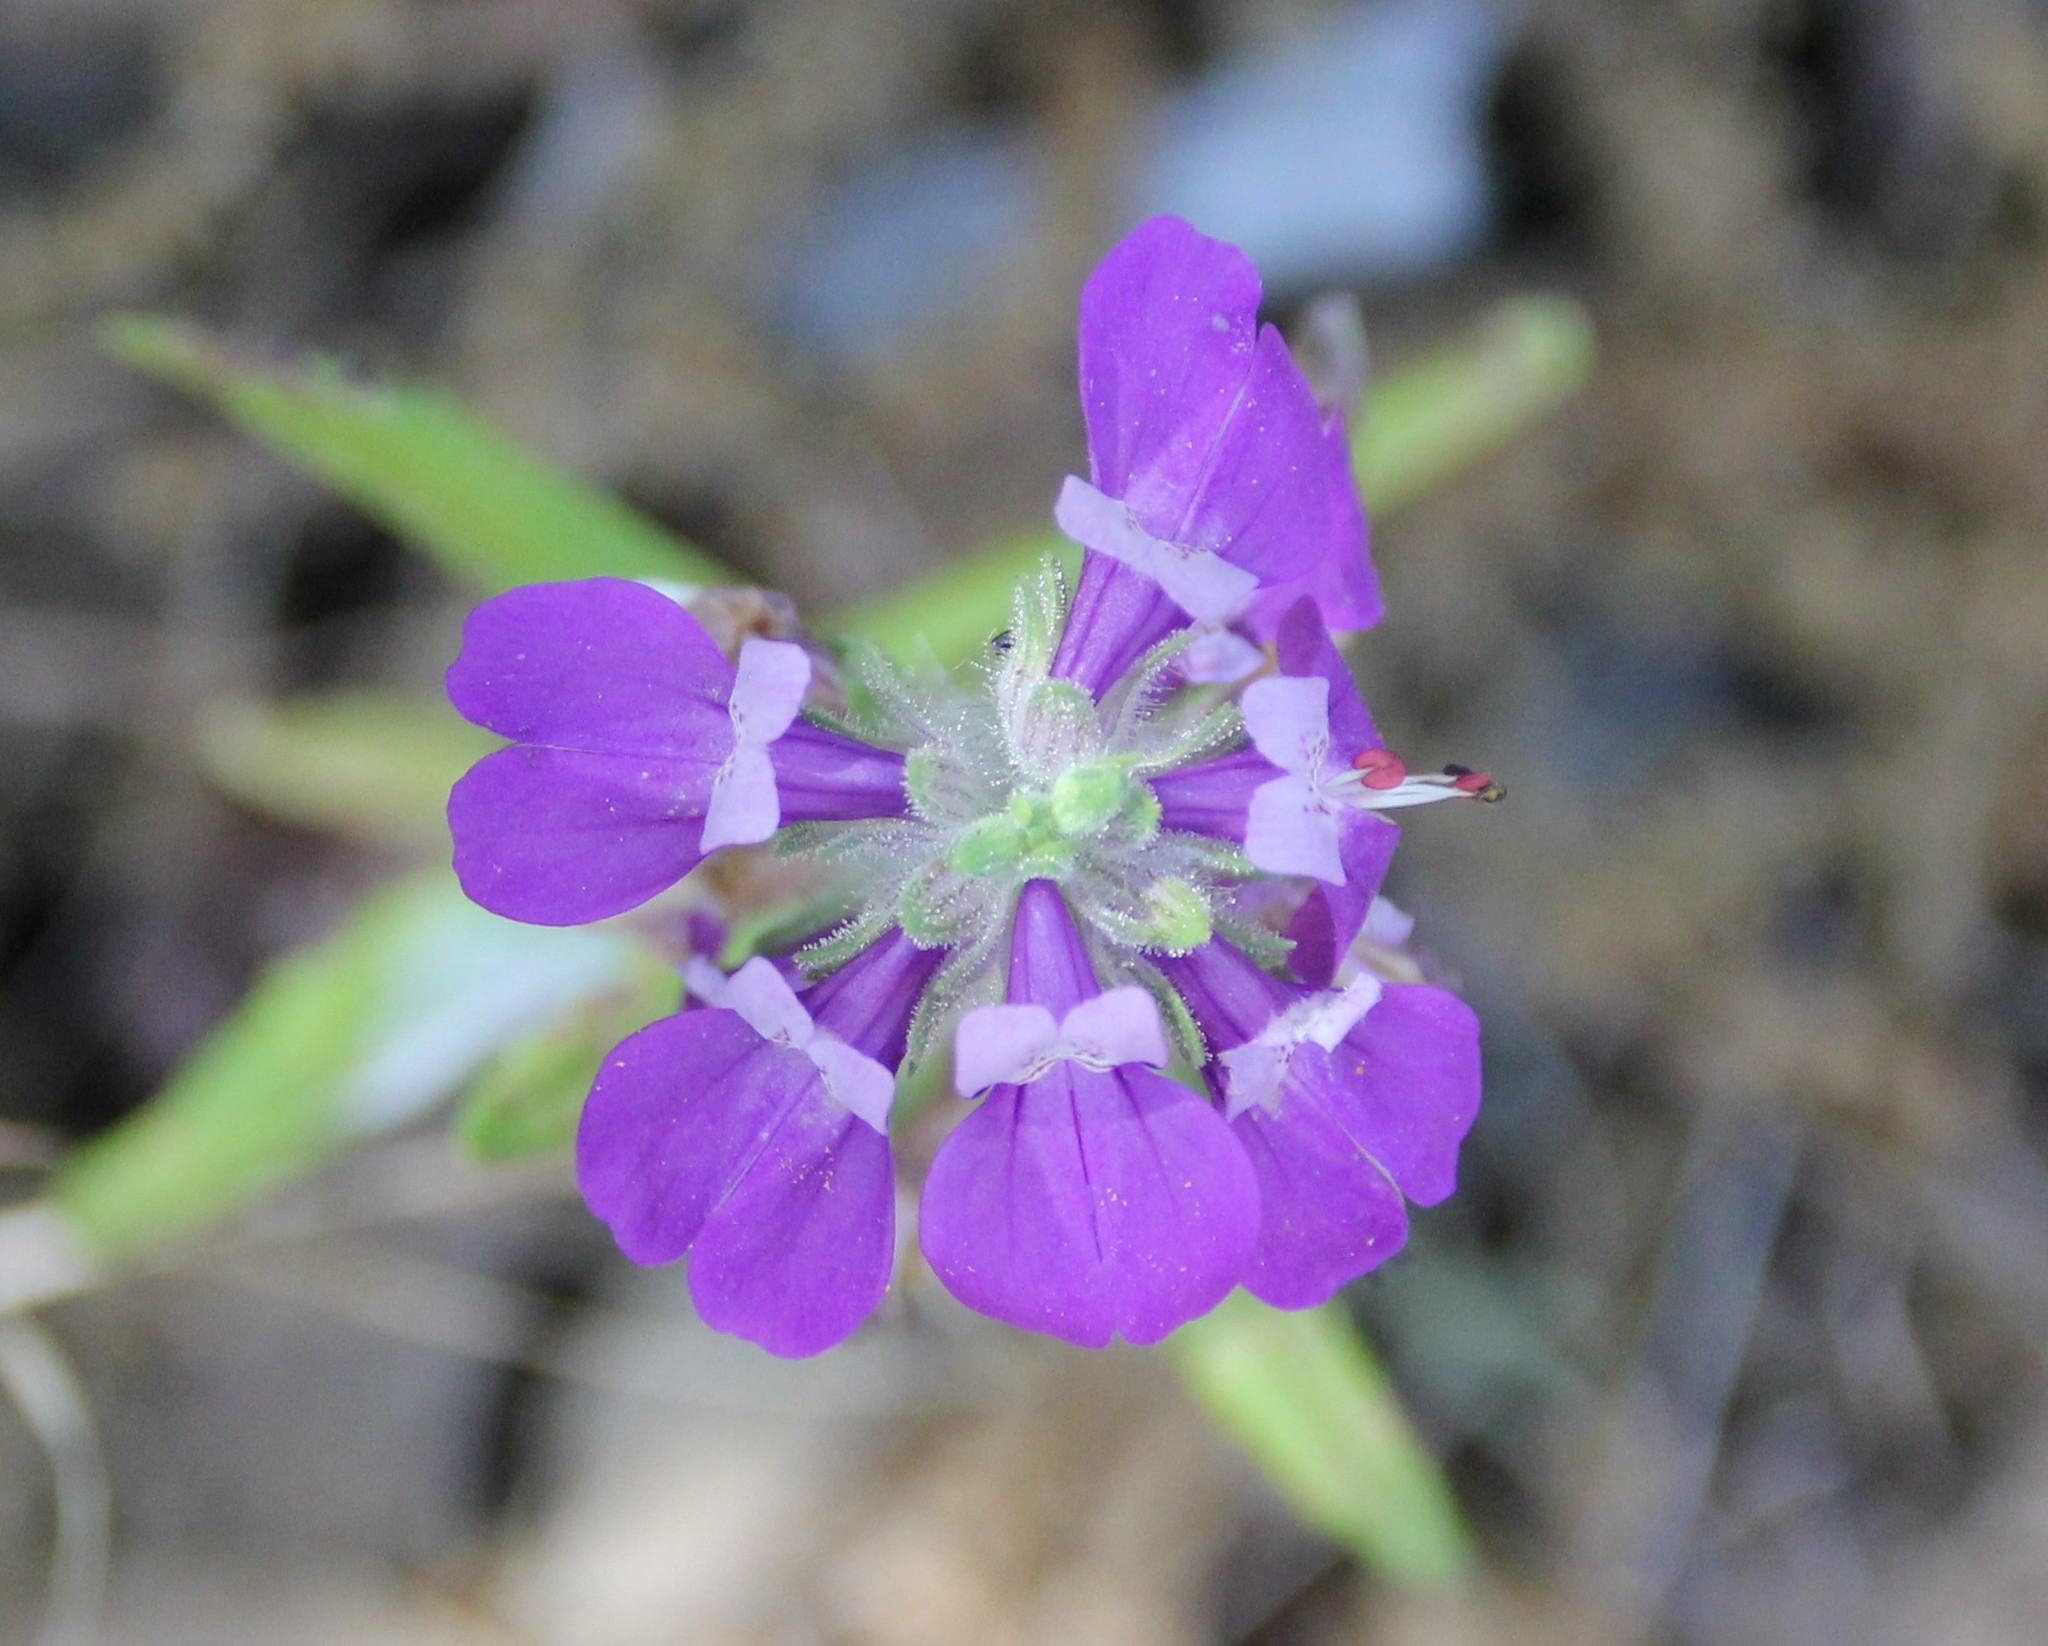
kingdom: Plantae
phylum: Tracheophyta
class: Magnoliopsida
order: Lamiales
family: Plantaginaceae
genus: Collinsia
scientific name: Collinsia concolor
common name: Chinese houses
